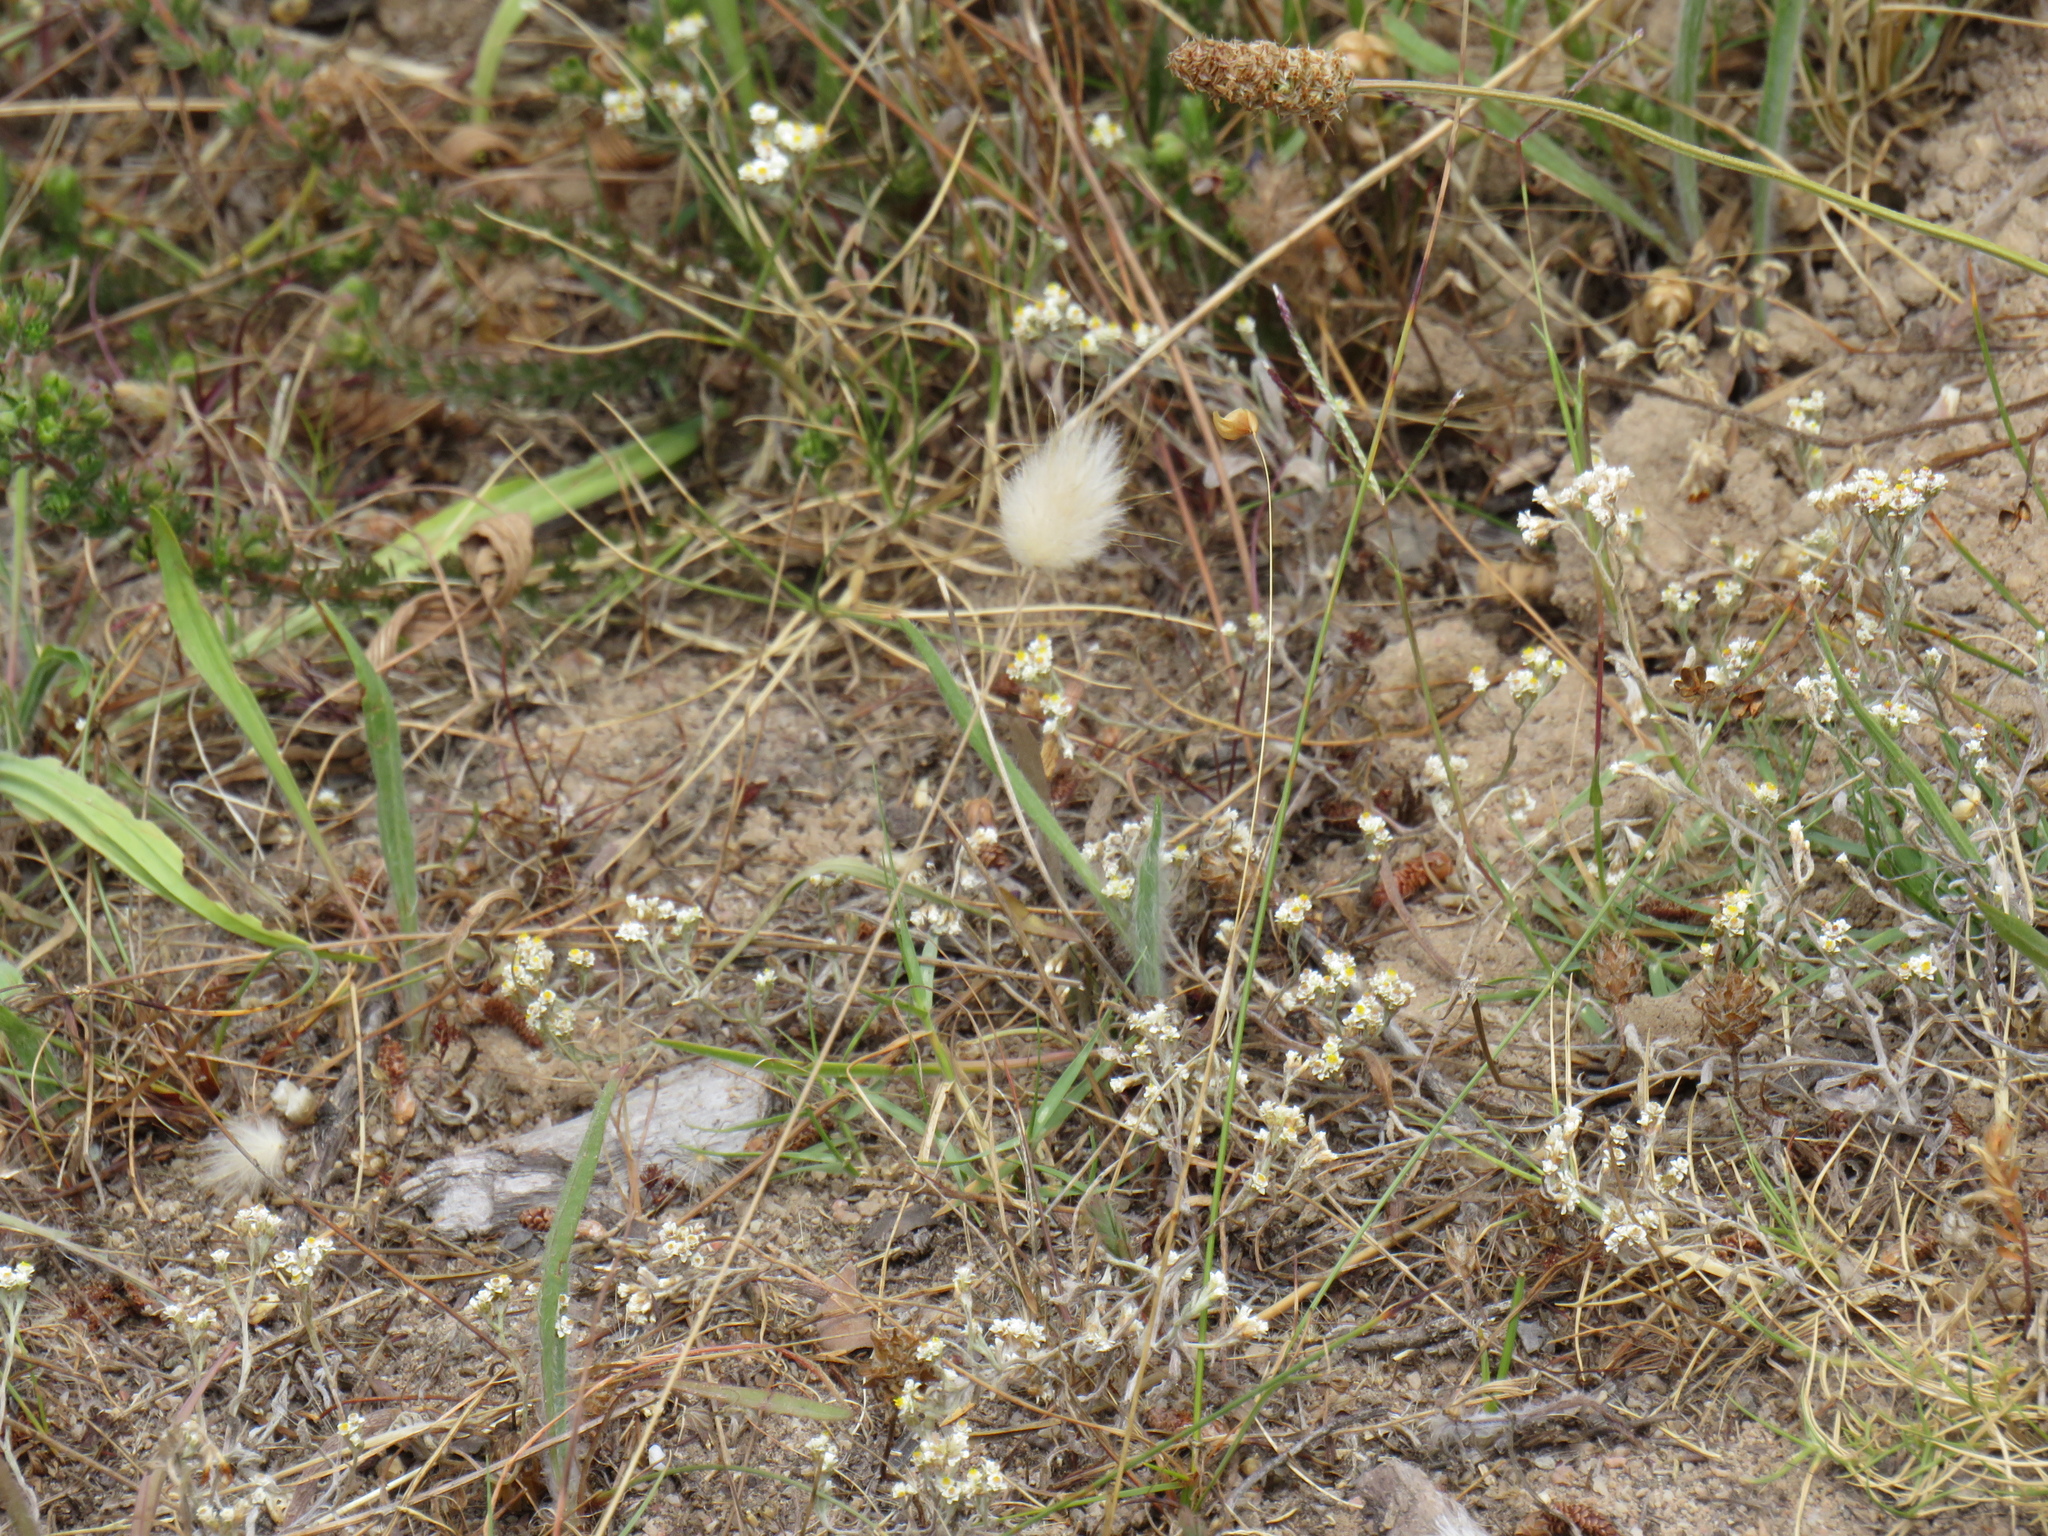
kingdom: Plantae
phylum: Tracheophyta
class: Liliopsida
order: Poales
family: Poaceae
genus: Lagurus
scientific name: Lagurus ovatus
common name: Hare's-tail
